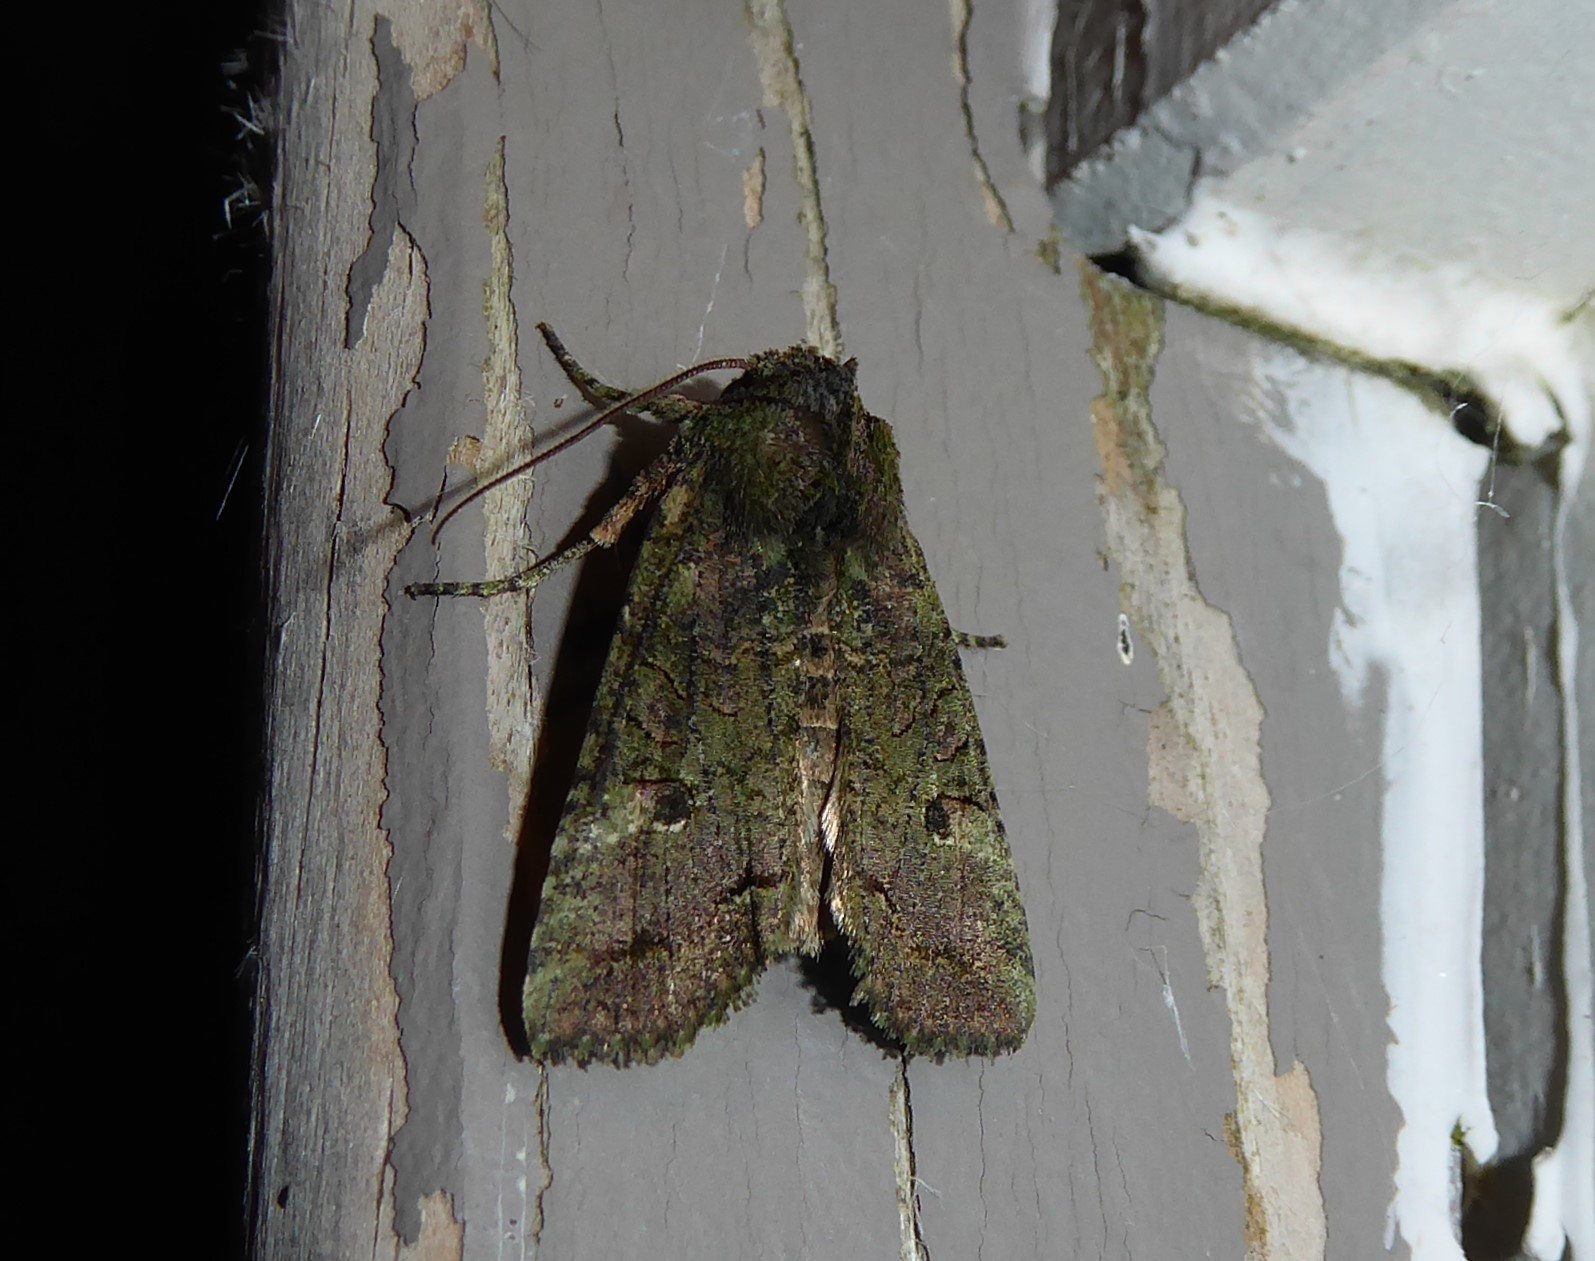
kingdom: Animalia
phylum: Arthropoda
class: Insecta
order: Lepidoptera
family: Noctuidae
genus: Meterana
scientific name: Meterana levis
